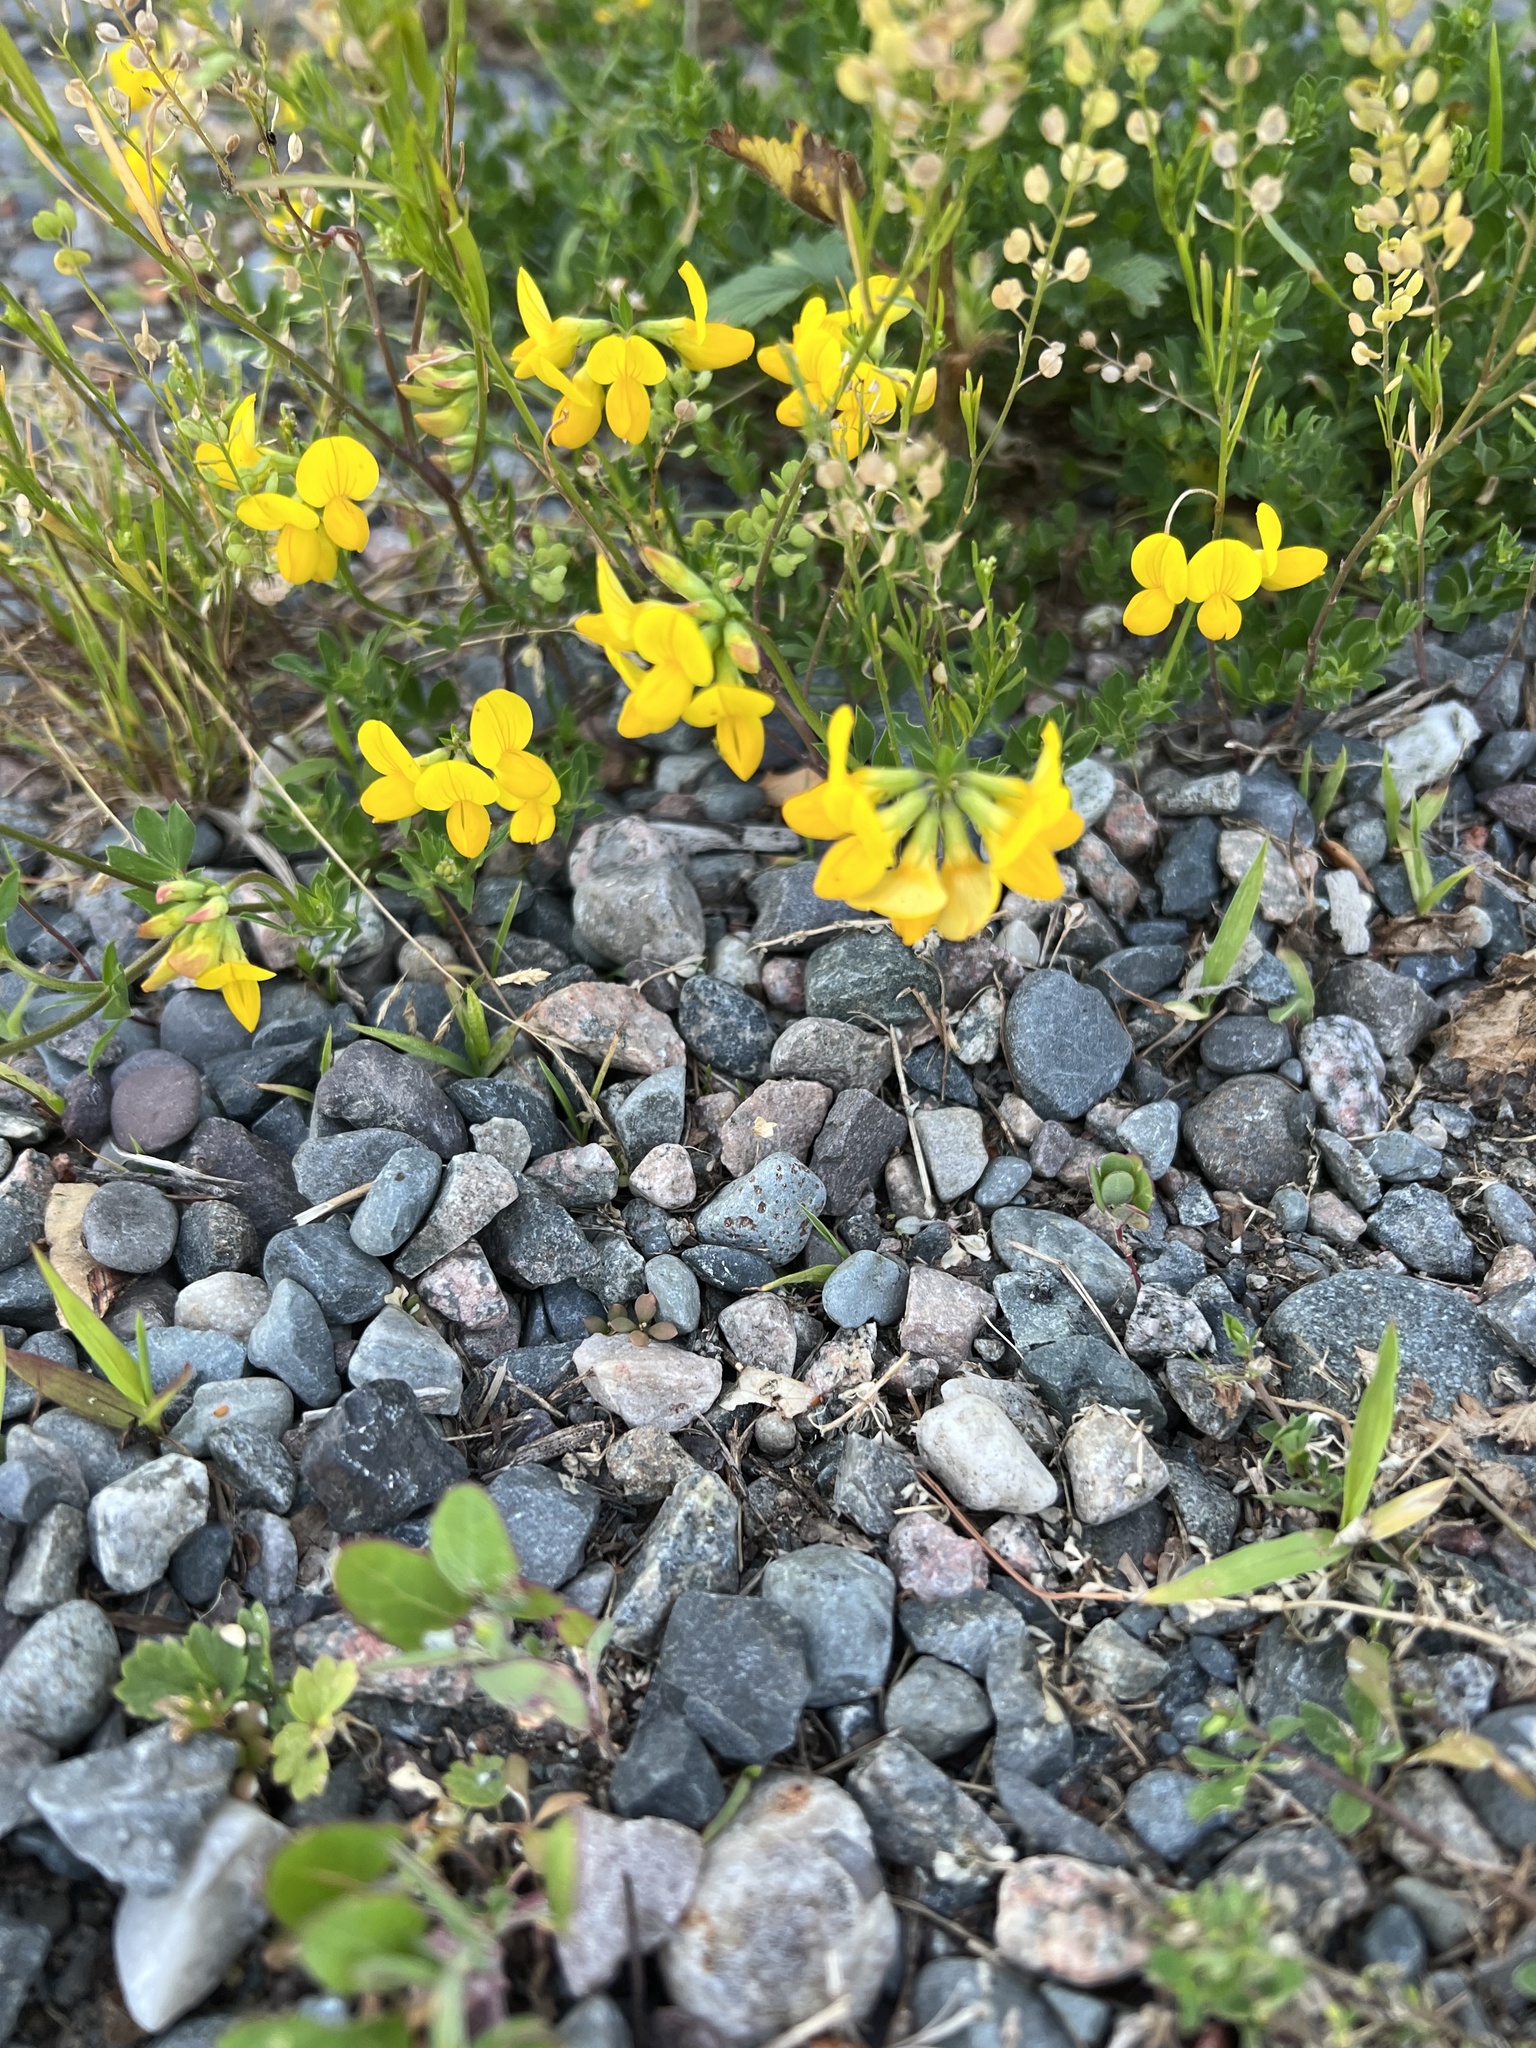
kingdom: Plantae
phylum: Tracheophyta
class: Magnoliopsida
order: Fabales
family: Fabaceae
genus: Lotus
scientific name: Lotus corniculatus
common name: Common bird's-foot-trefoil
